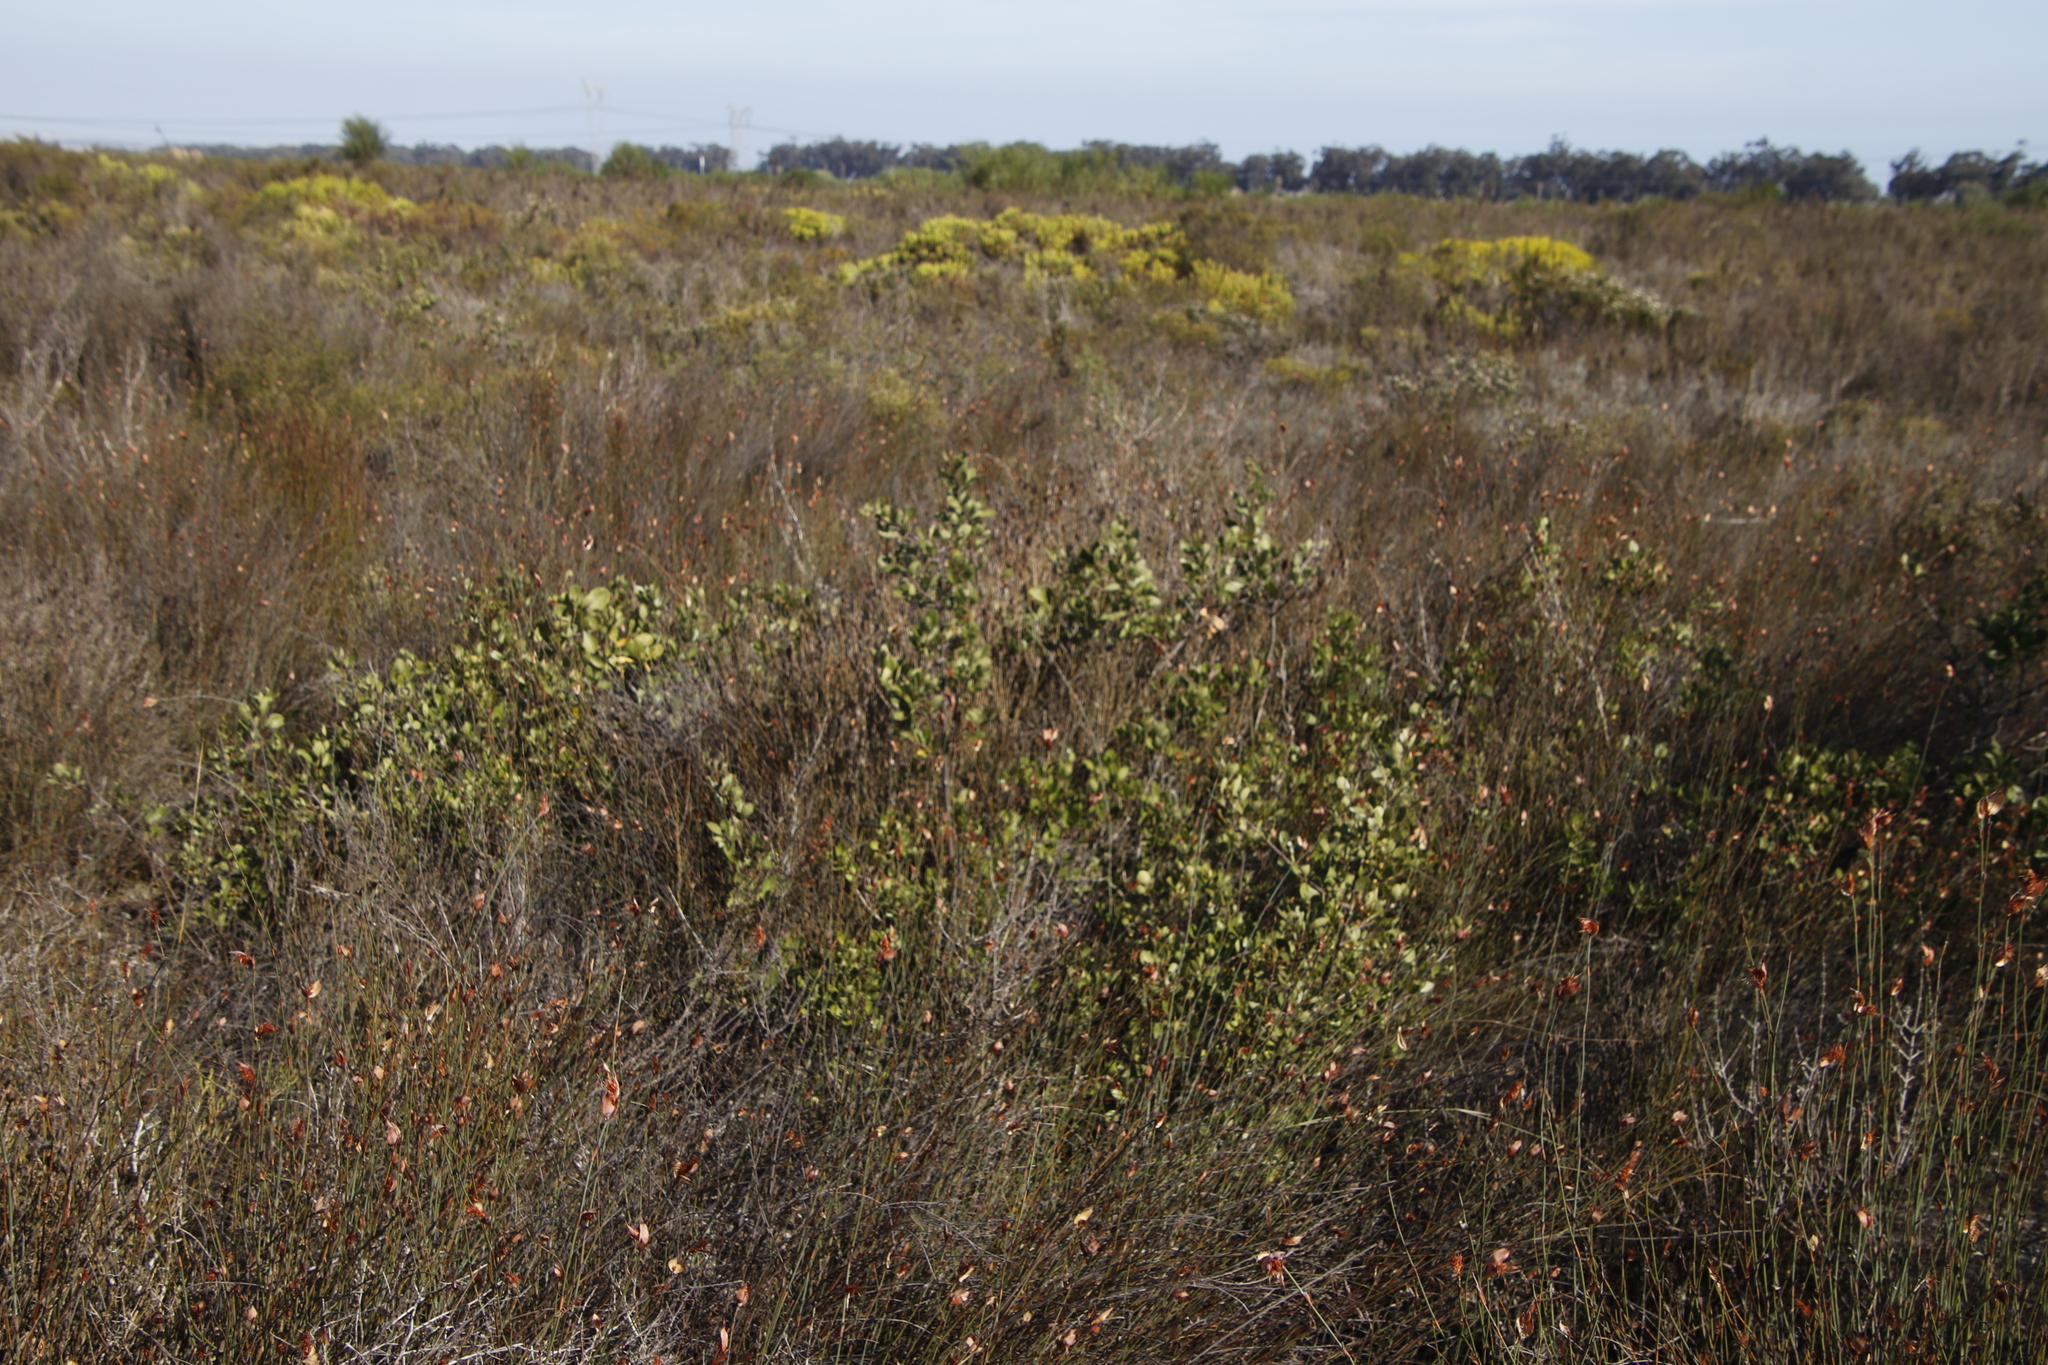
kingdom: Plantae
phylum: Tracheophyta
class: Magnoliopsida
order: Sapindales
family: Anacardiaceae
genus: Searsia
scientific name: Searsia laevigata
